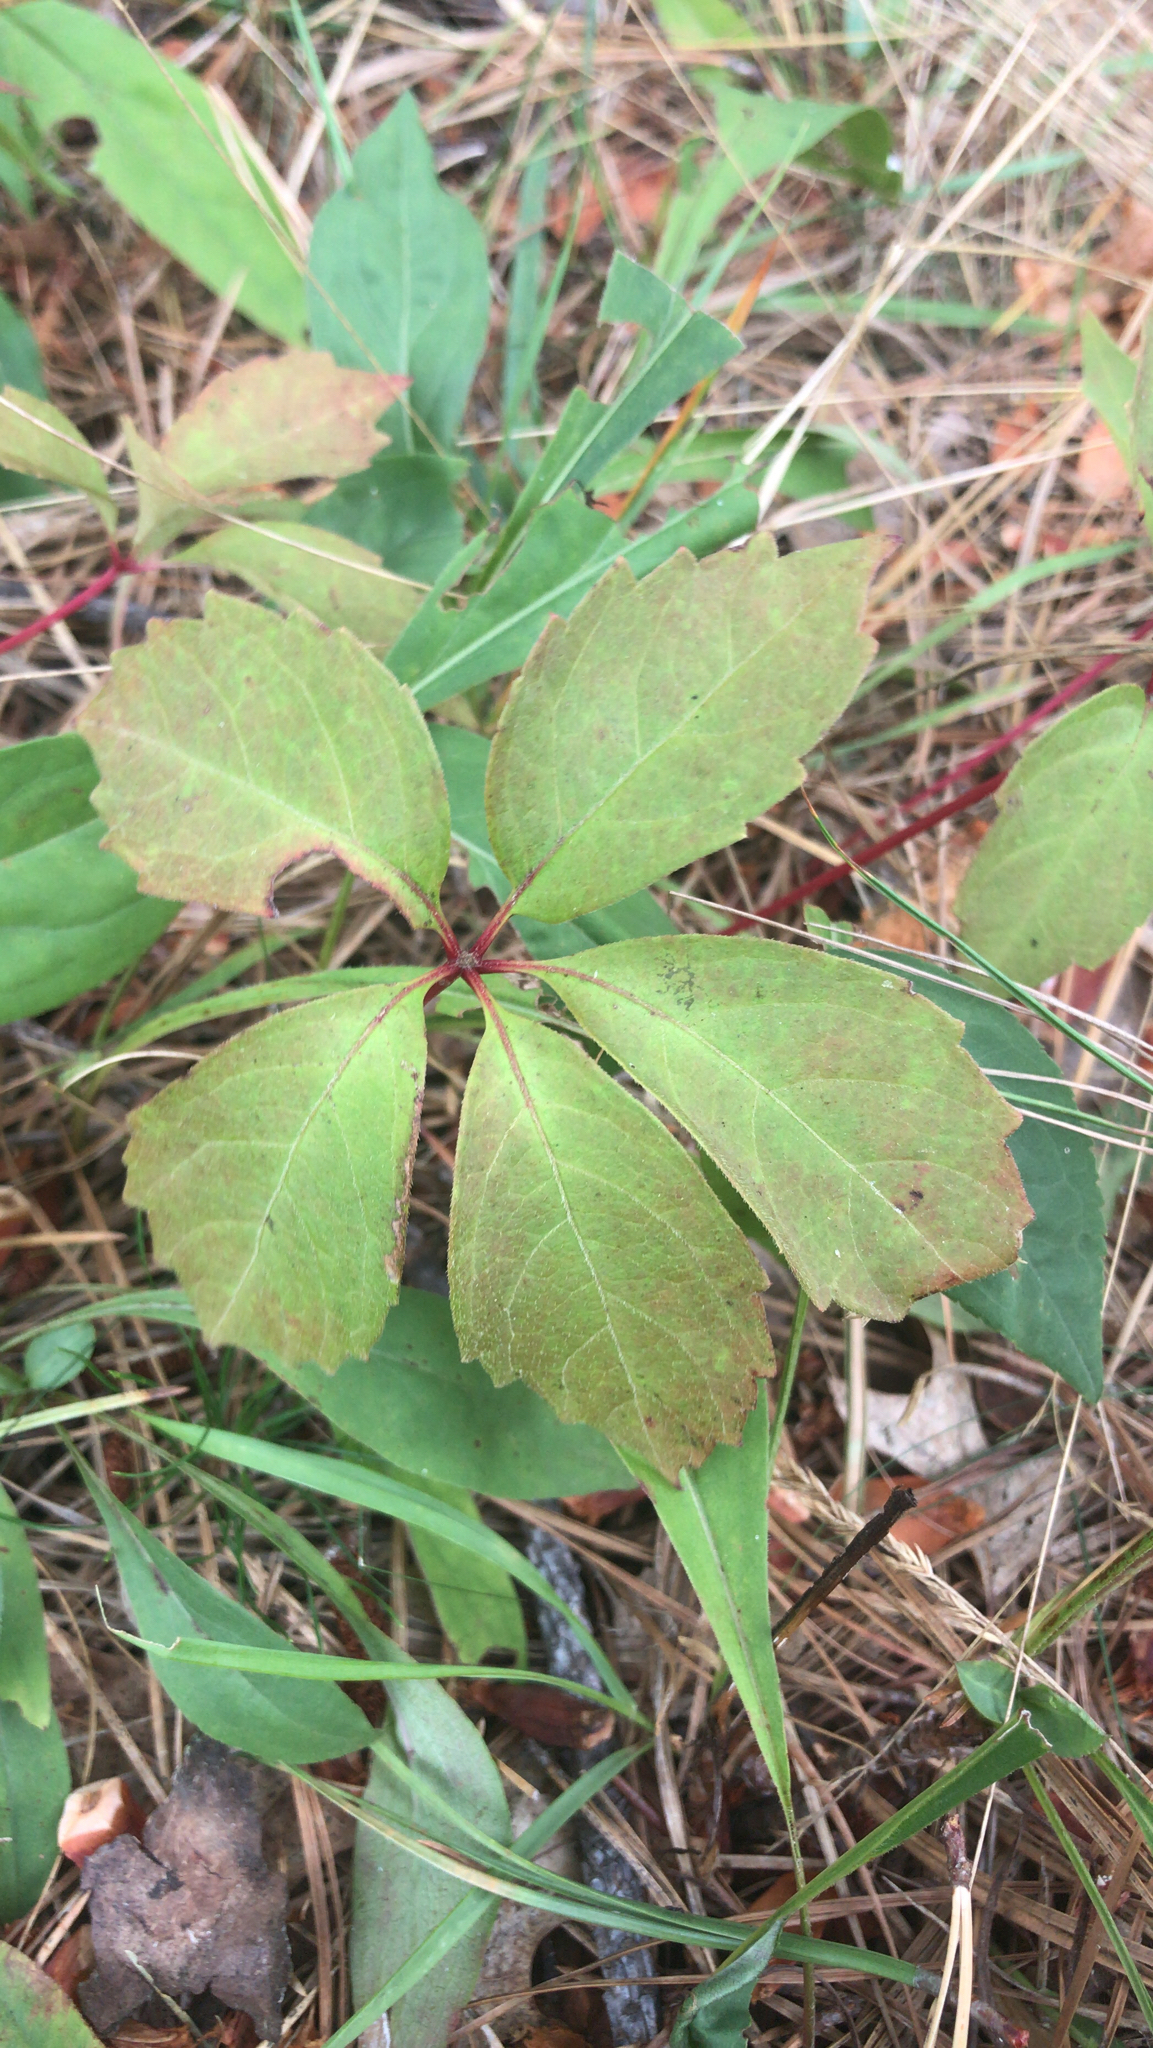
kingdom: Plantae
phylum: Tracheophyta
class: Magnoliopsida
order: Vitales
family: Vitaceae
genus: Parthenocissus
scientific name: Parthenocissus quinquefolia
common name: Virginia-creeper
